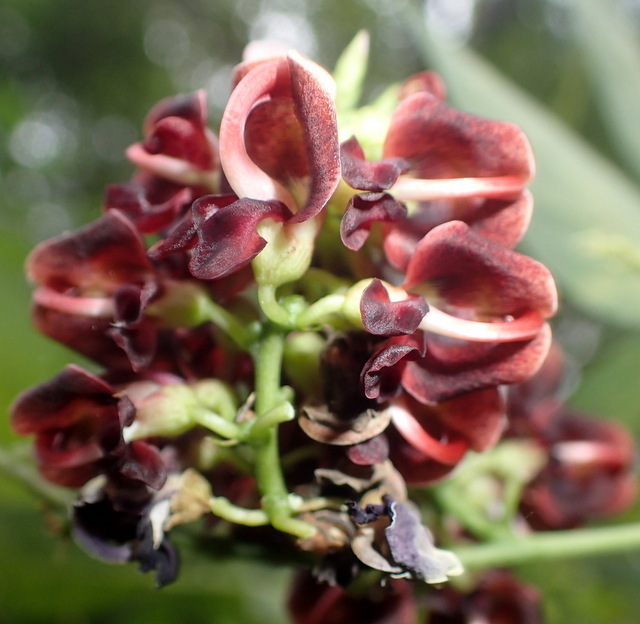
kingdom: Plantae
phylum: Tracheophyta
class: Magnoliopsida
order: Fabales
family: Fabaceae
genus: Apios
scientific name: Apios americana
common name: American potato-bean
